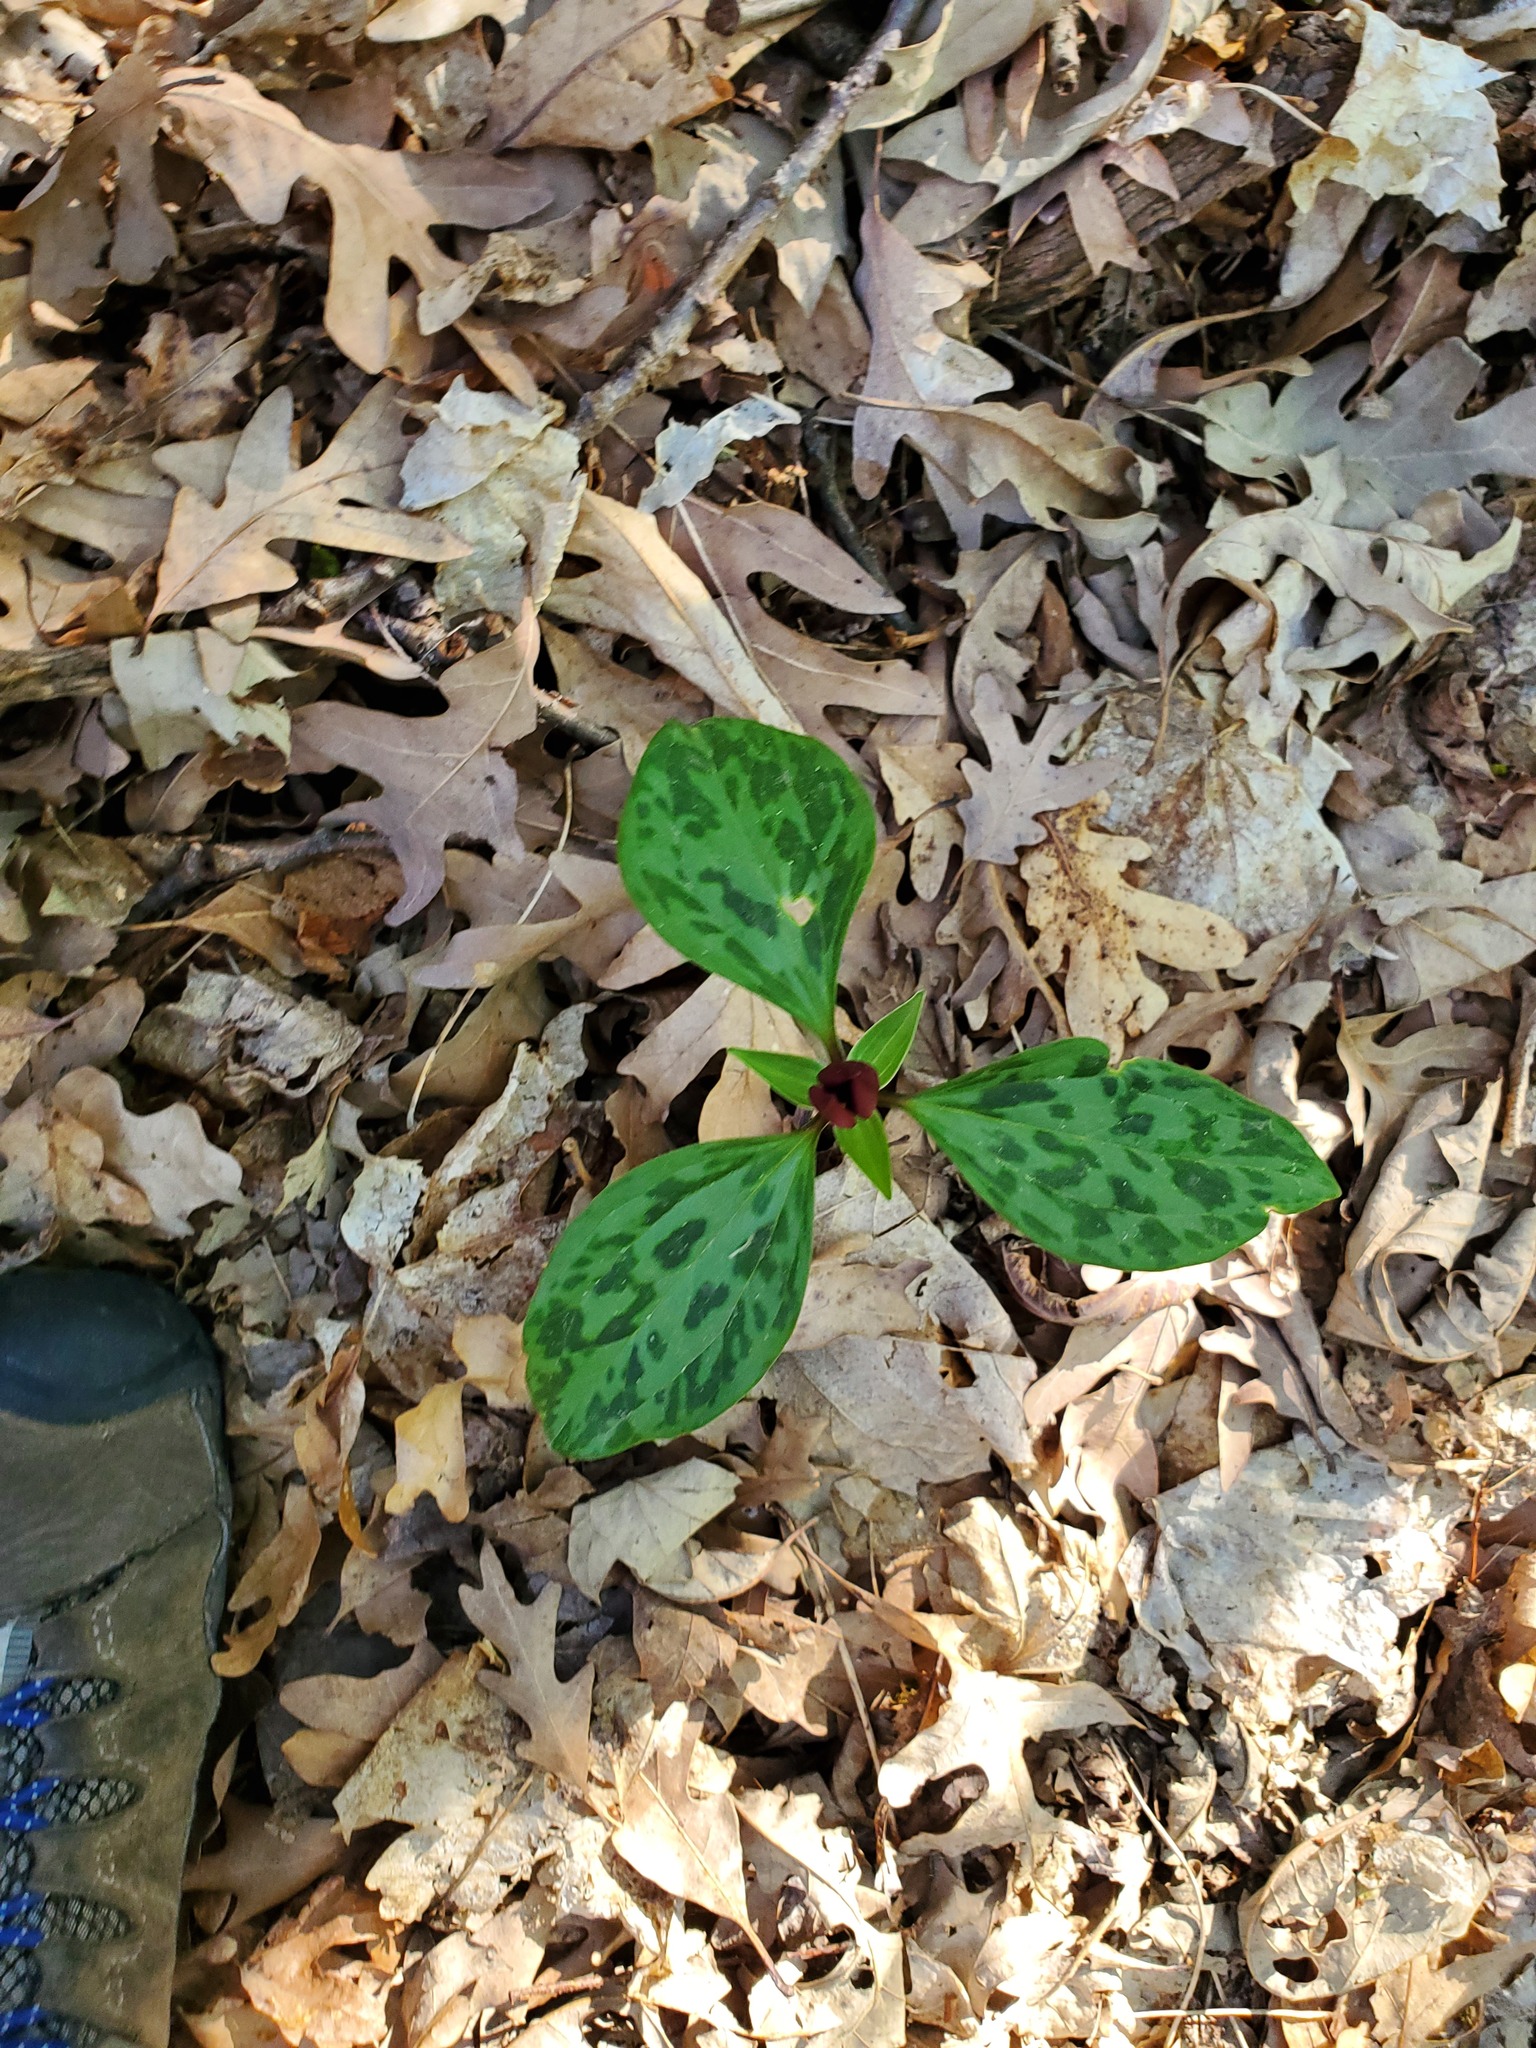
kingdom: Plantae
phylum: Tracheophyta
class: Liliopsida
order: Liliales
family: Melanthiaceae
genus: Trillium
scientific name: Trillium recurvatum
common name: Bloody butcher
